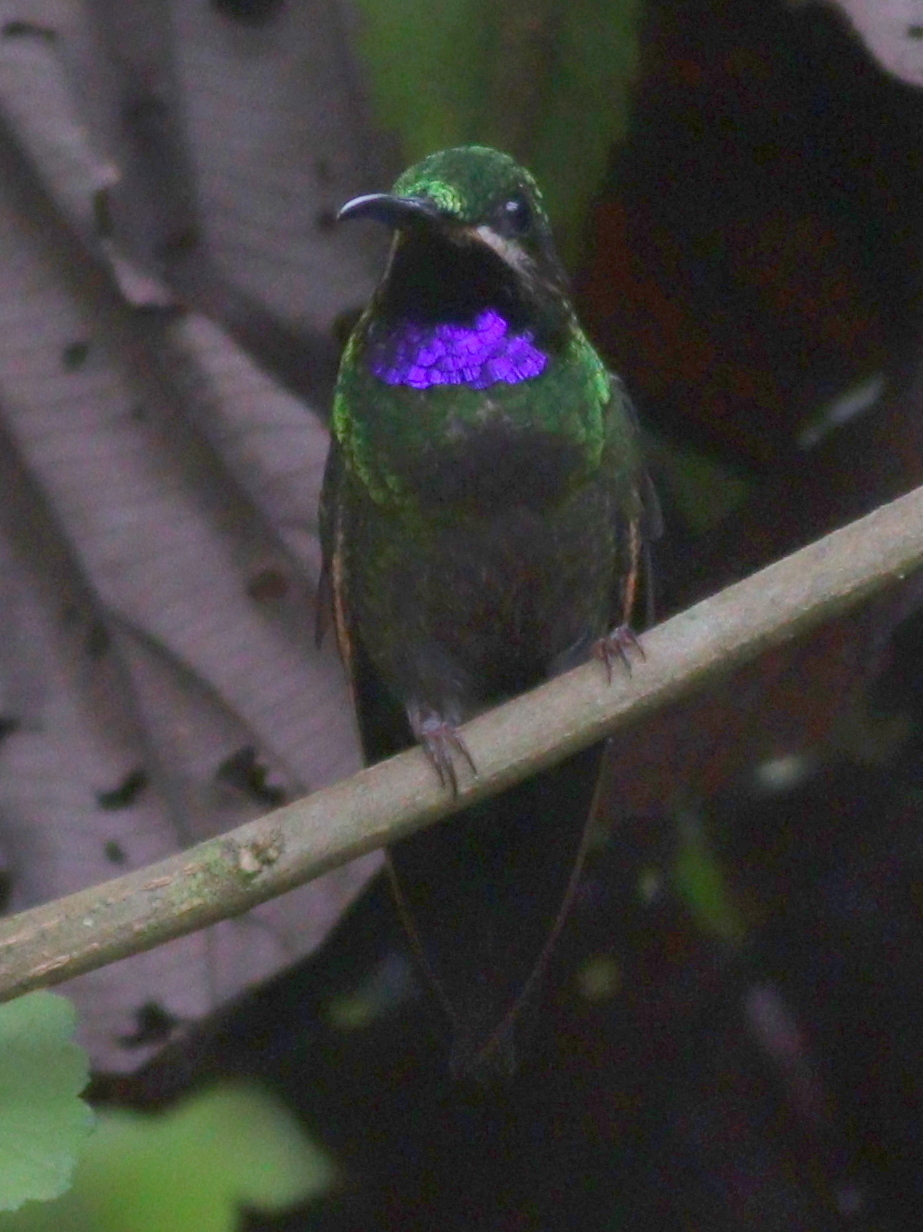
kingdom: Animalia
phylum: Chordata
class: Aves
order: Apodiformes
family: Trochilidae
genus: Heliodoxa
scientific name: Heliodoxa schreibersii
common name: Black-throated brilliant
